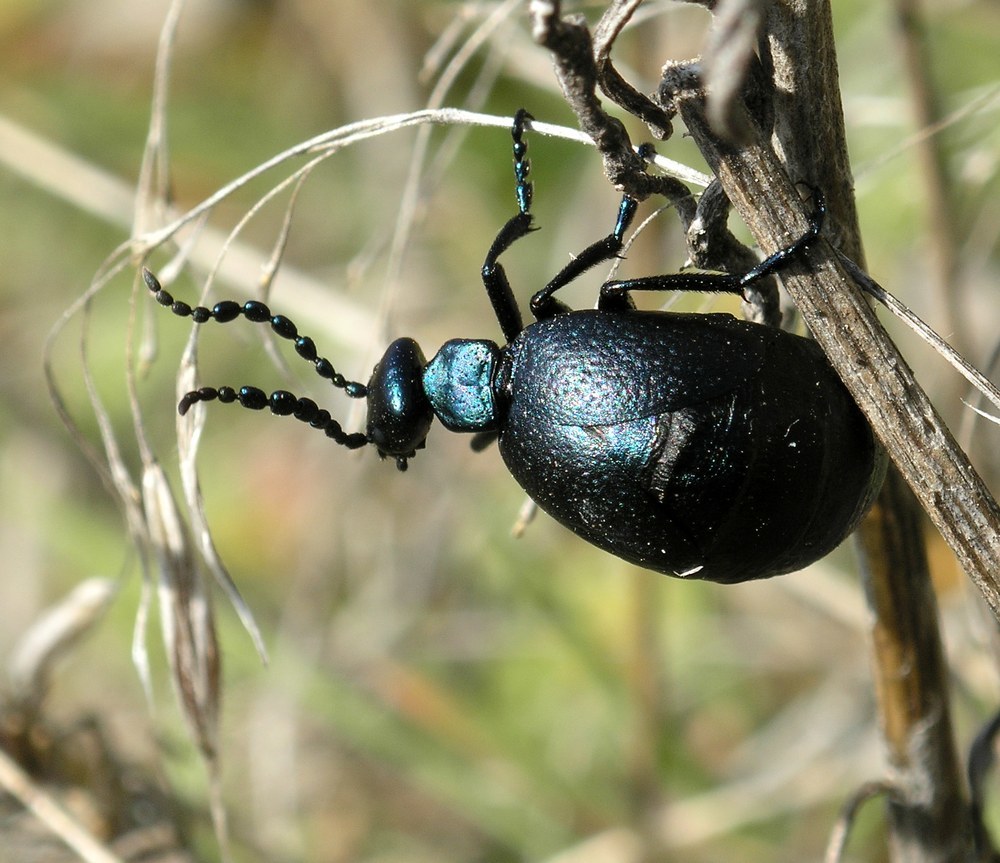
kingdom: Animalia
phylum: Arthropoda
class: Insecta
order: Coleoptera
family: Meloidae
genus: Meloe
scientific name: Meloe autumnalis
